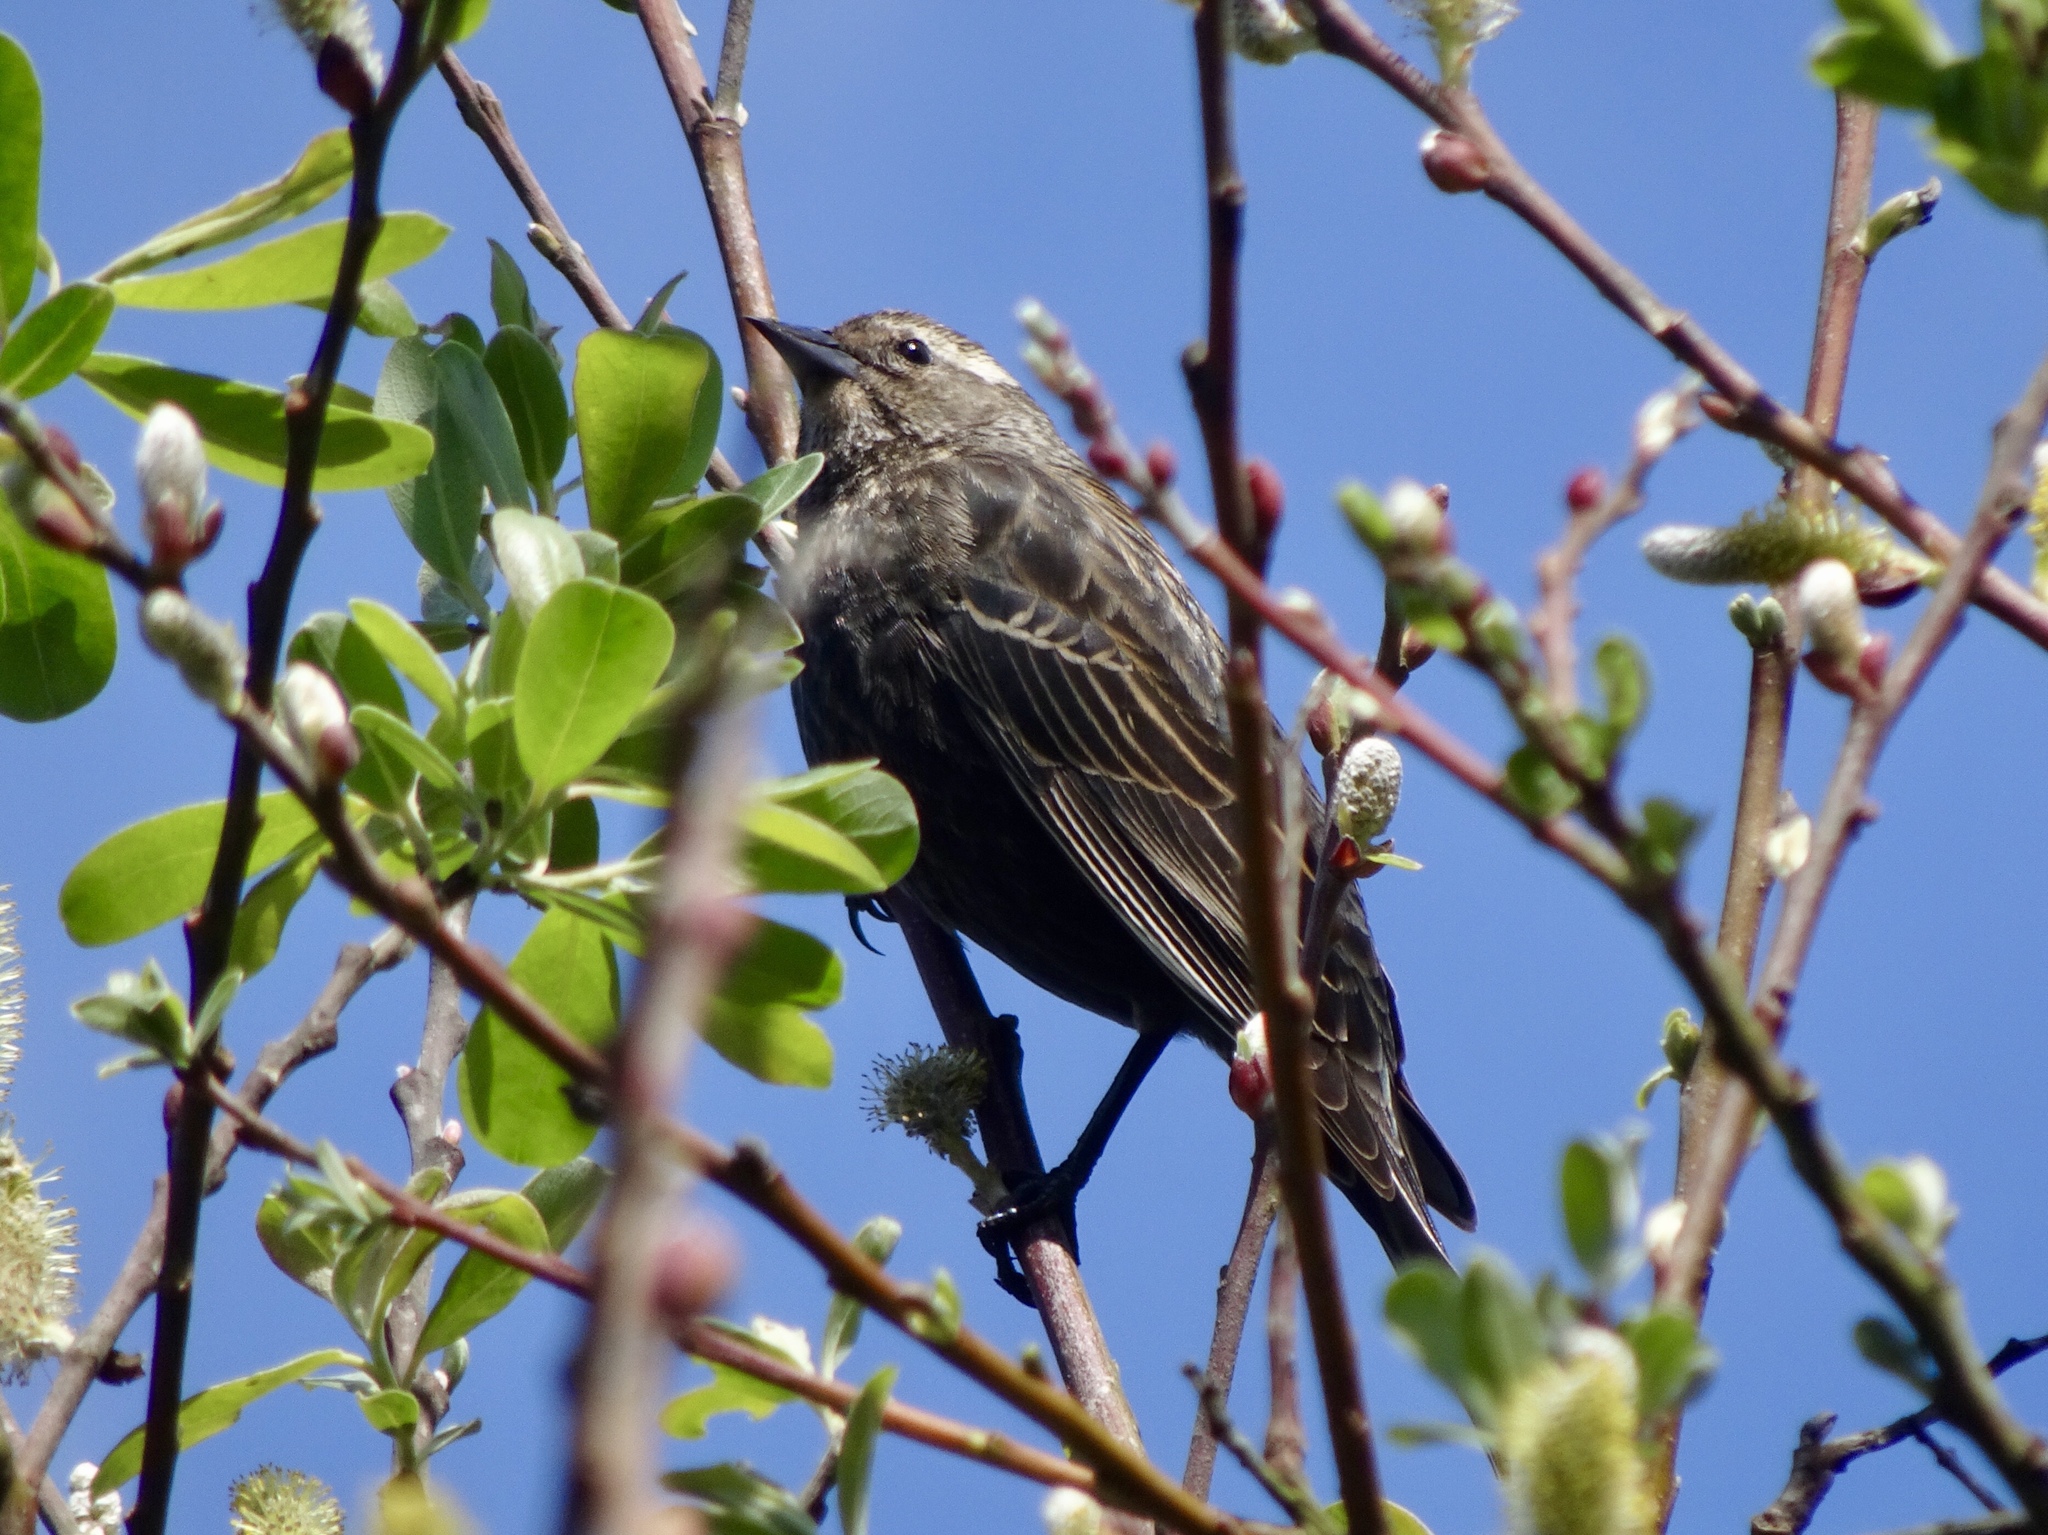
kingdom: Animalia
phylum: Chordata
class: Aves
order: Passeriformes
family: Icteridae
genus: Agelaius
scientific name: Agelaius phoeniceus
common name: Red-winged blackbird
